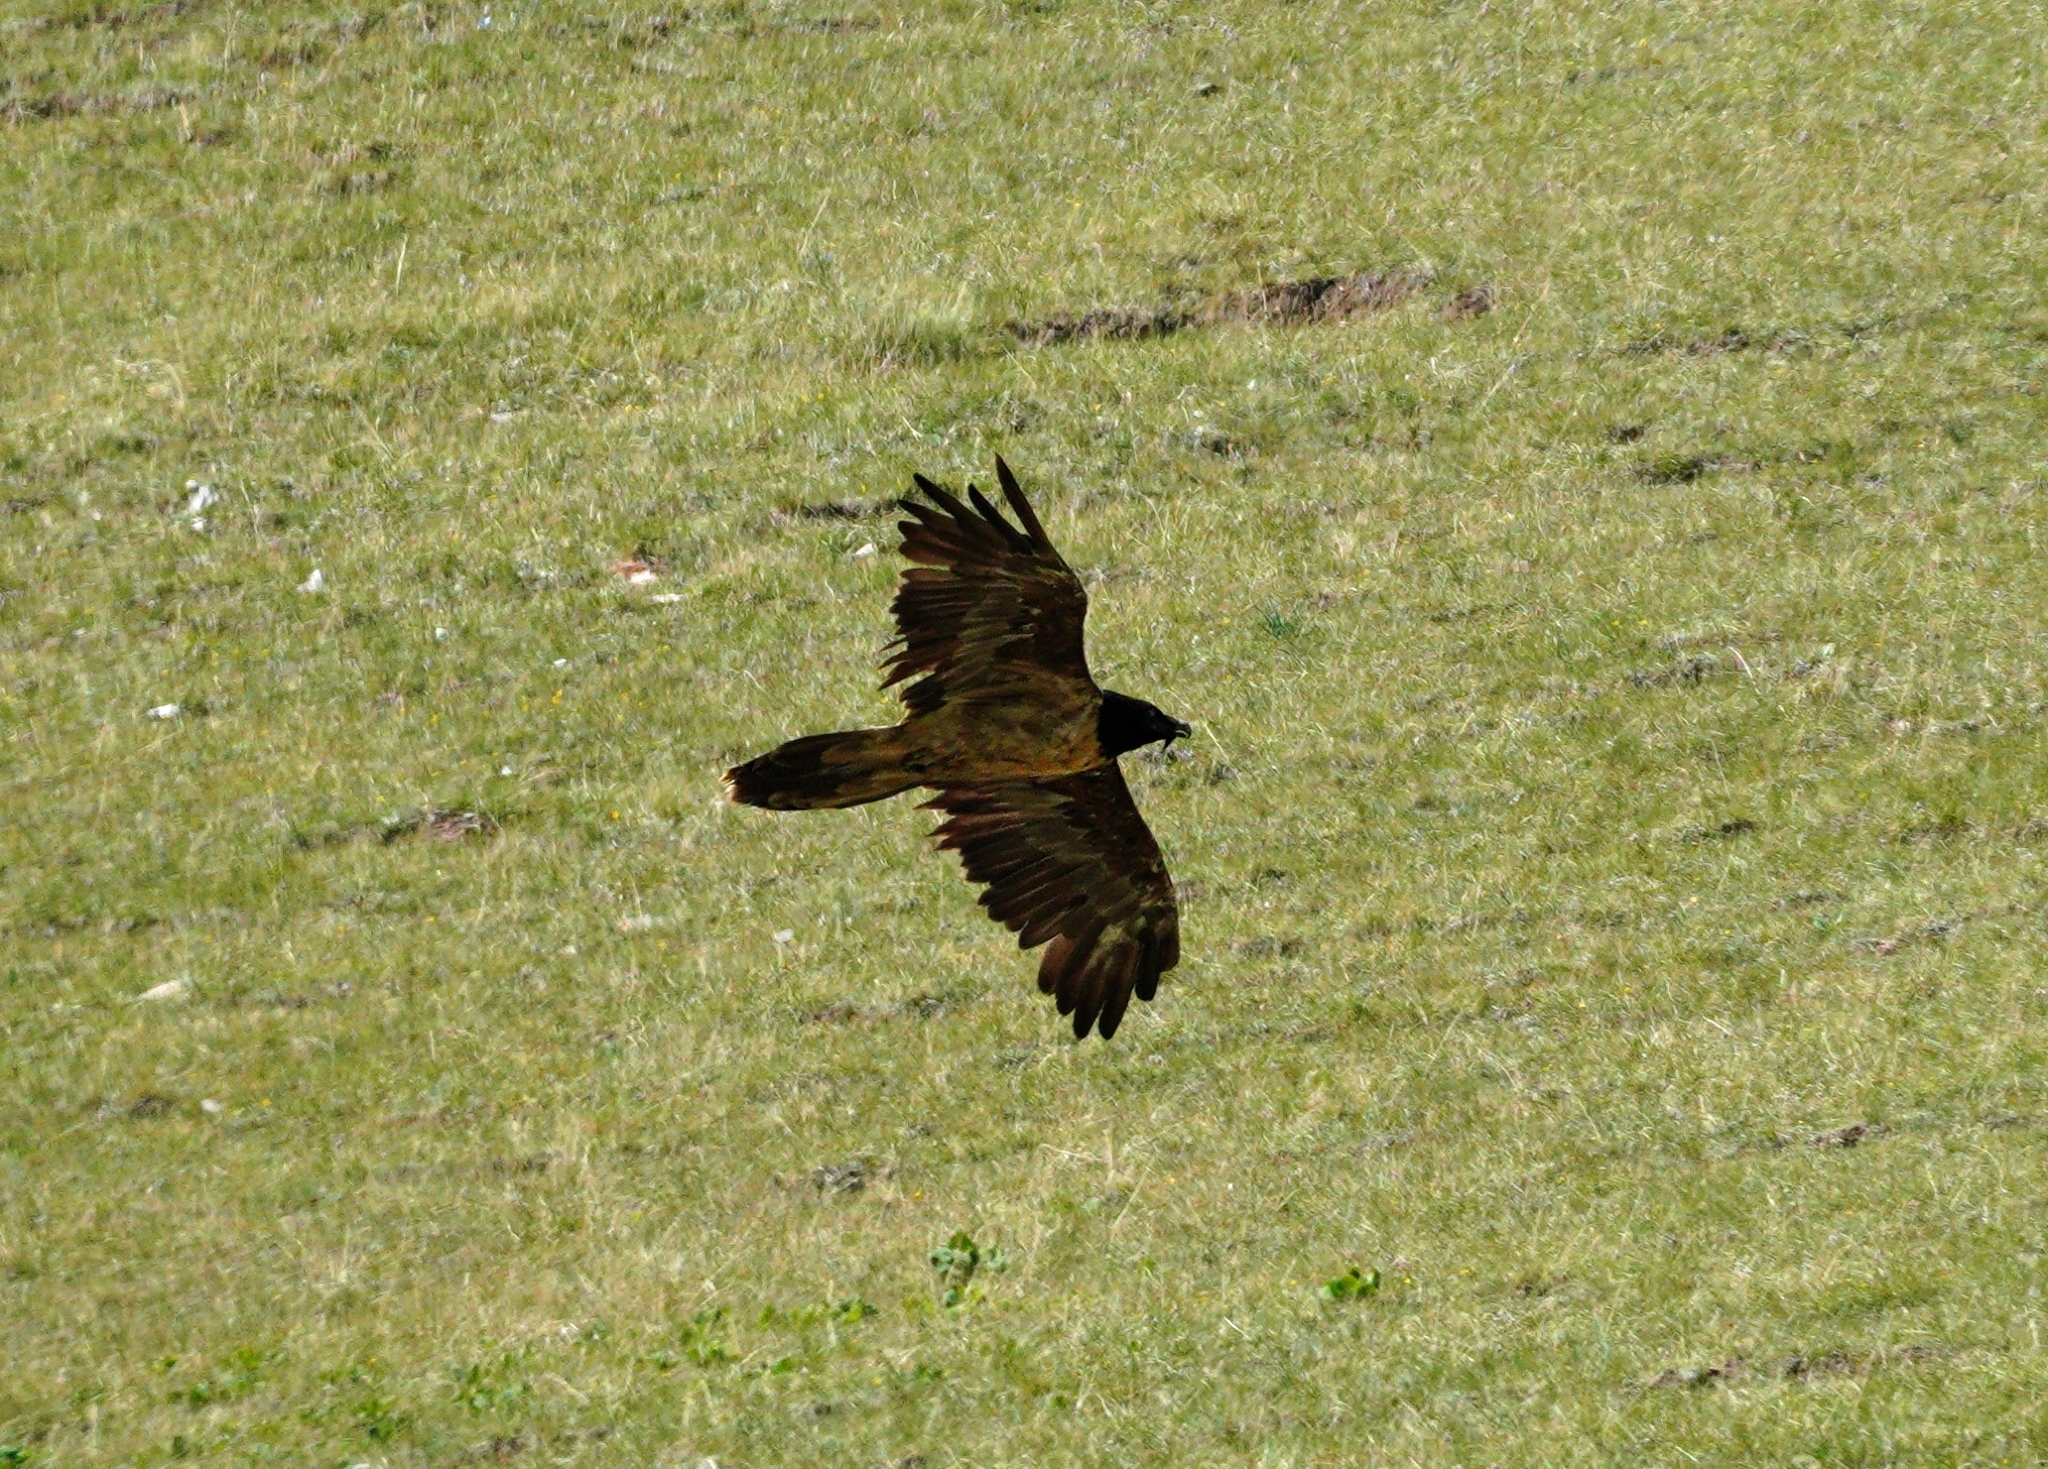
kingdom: Animalia
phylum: Chordata
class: Aves
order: Accipitriformes
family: Accipitridae
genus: Gypaetus
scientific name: Gypaetus barbatus
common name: Bearded vulture
